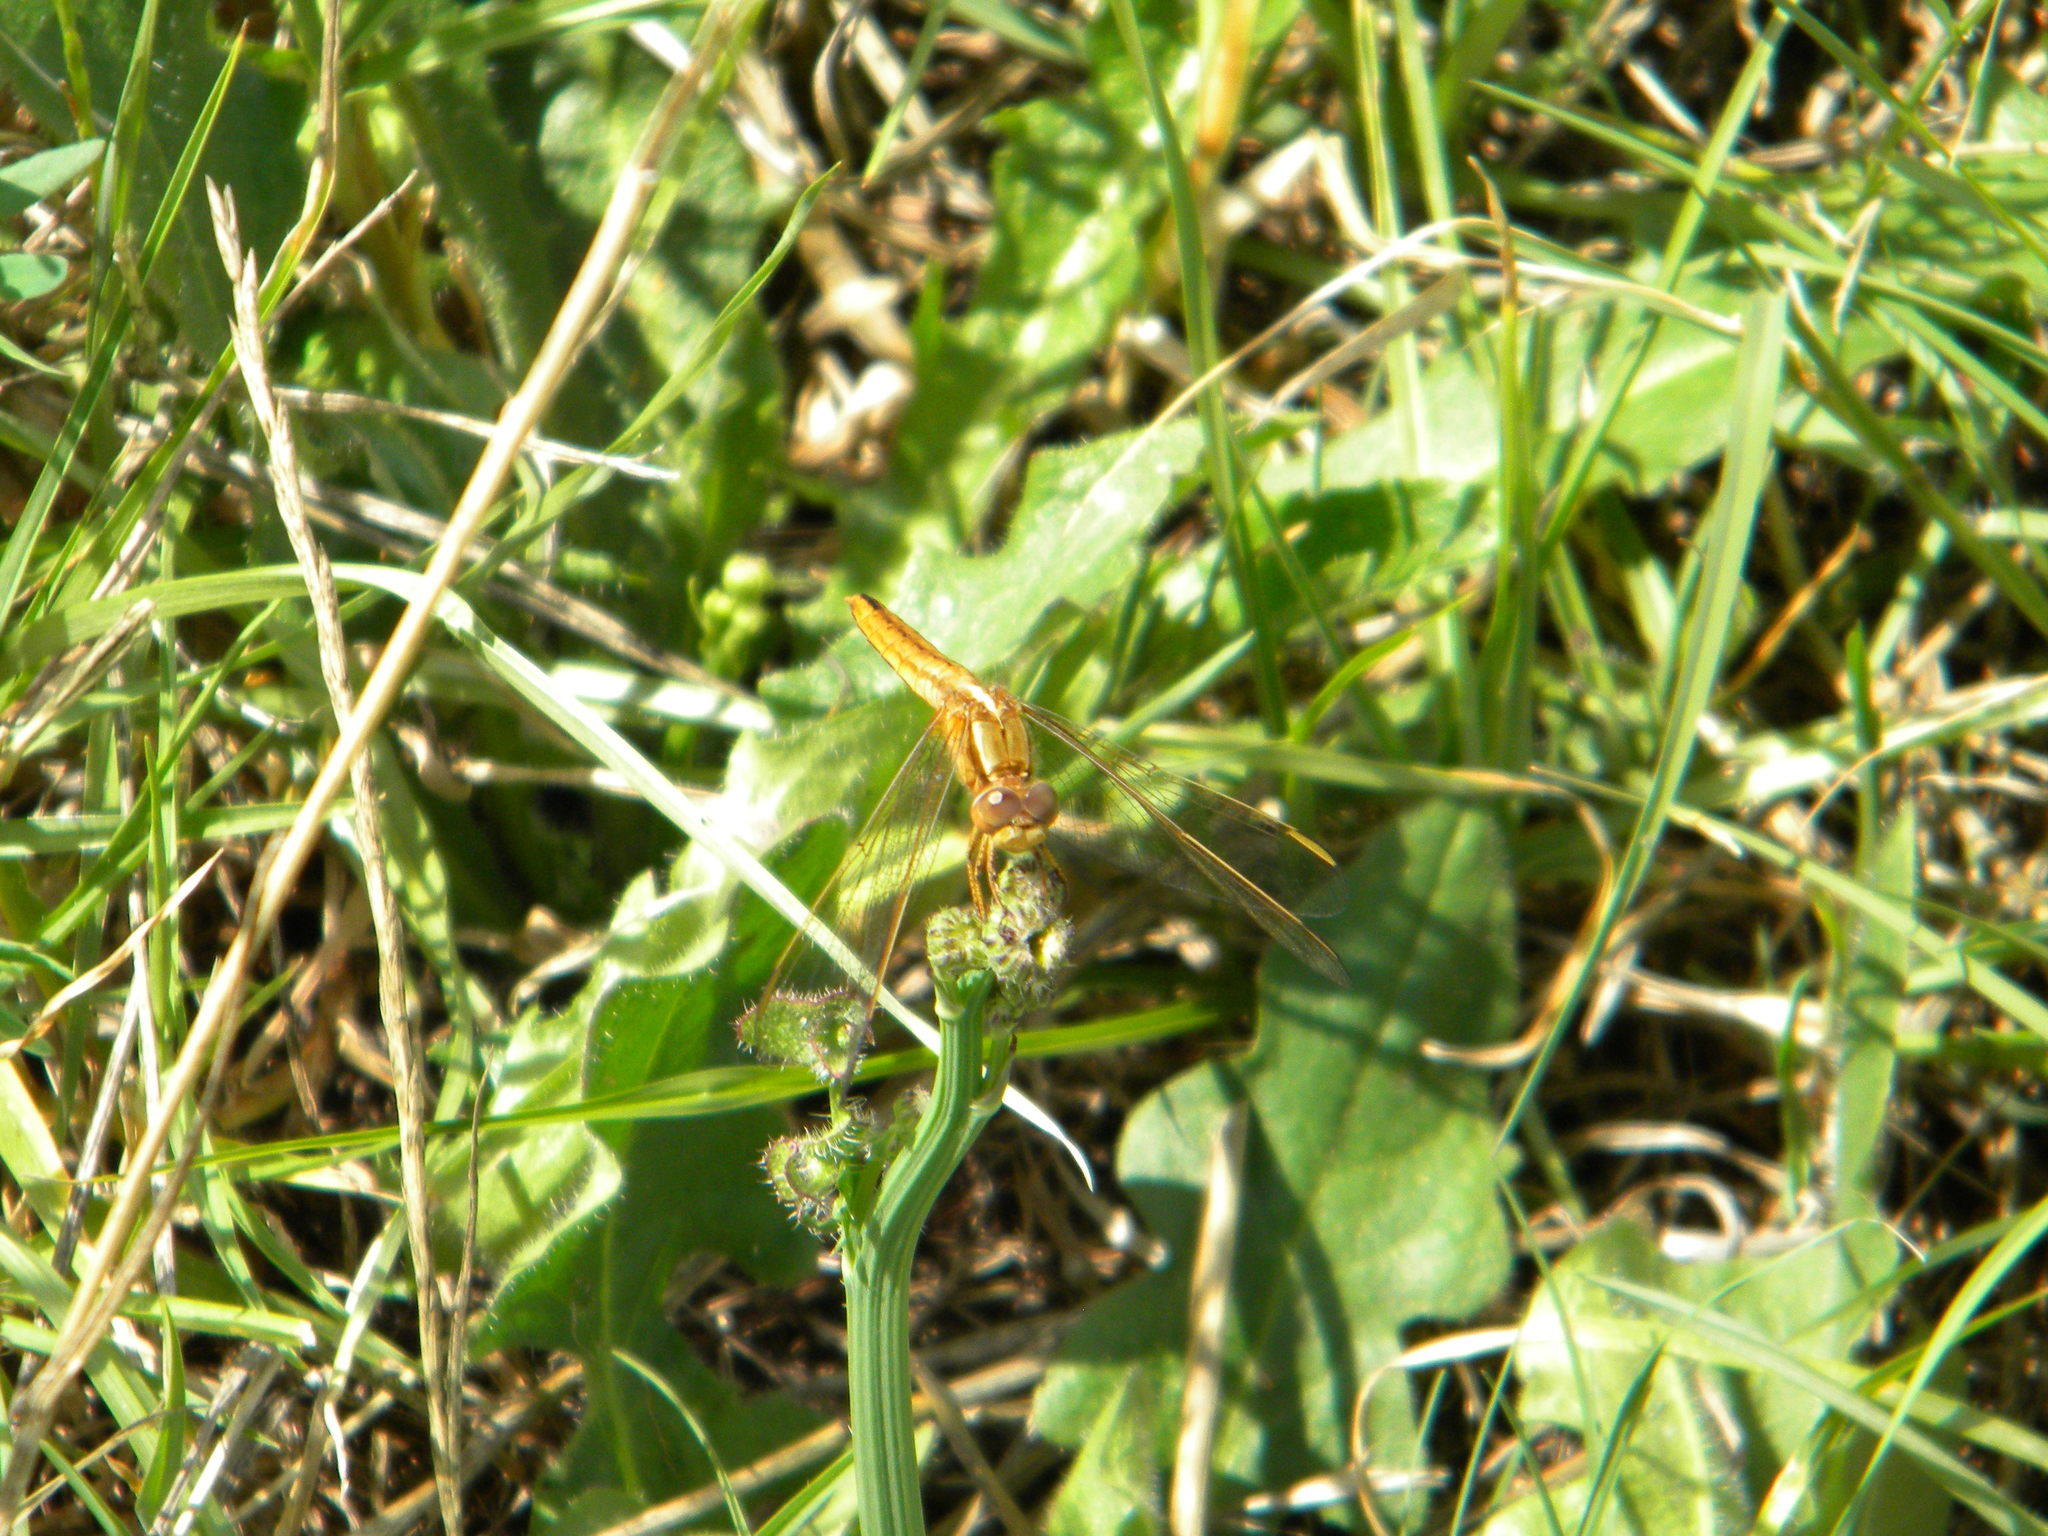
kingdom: Animalia
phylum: Arthropoda
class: Insecta
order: Odonata
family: Libellulidae
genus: Crocothemis
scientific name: Crocothemis erythraea
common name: Scarlet dragonfly
